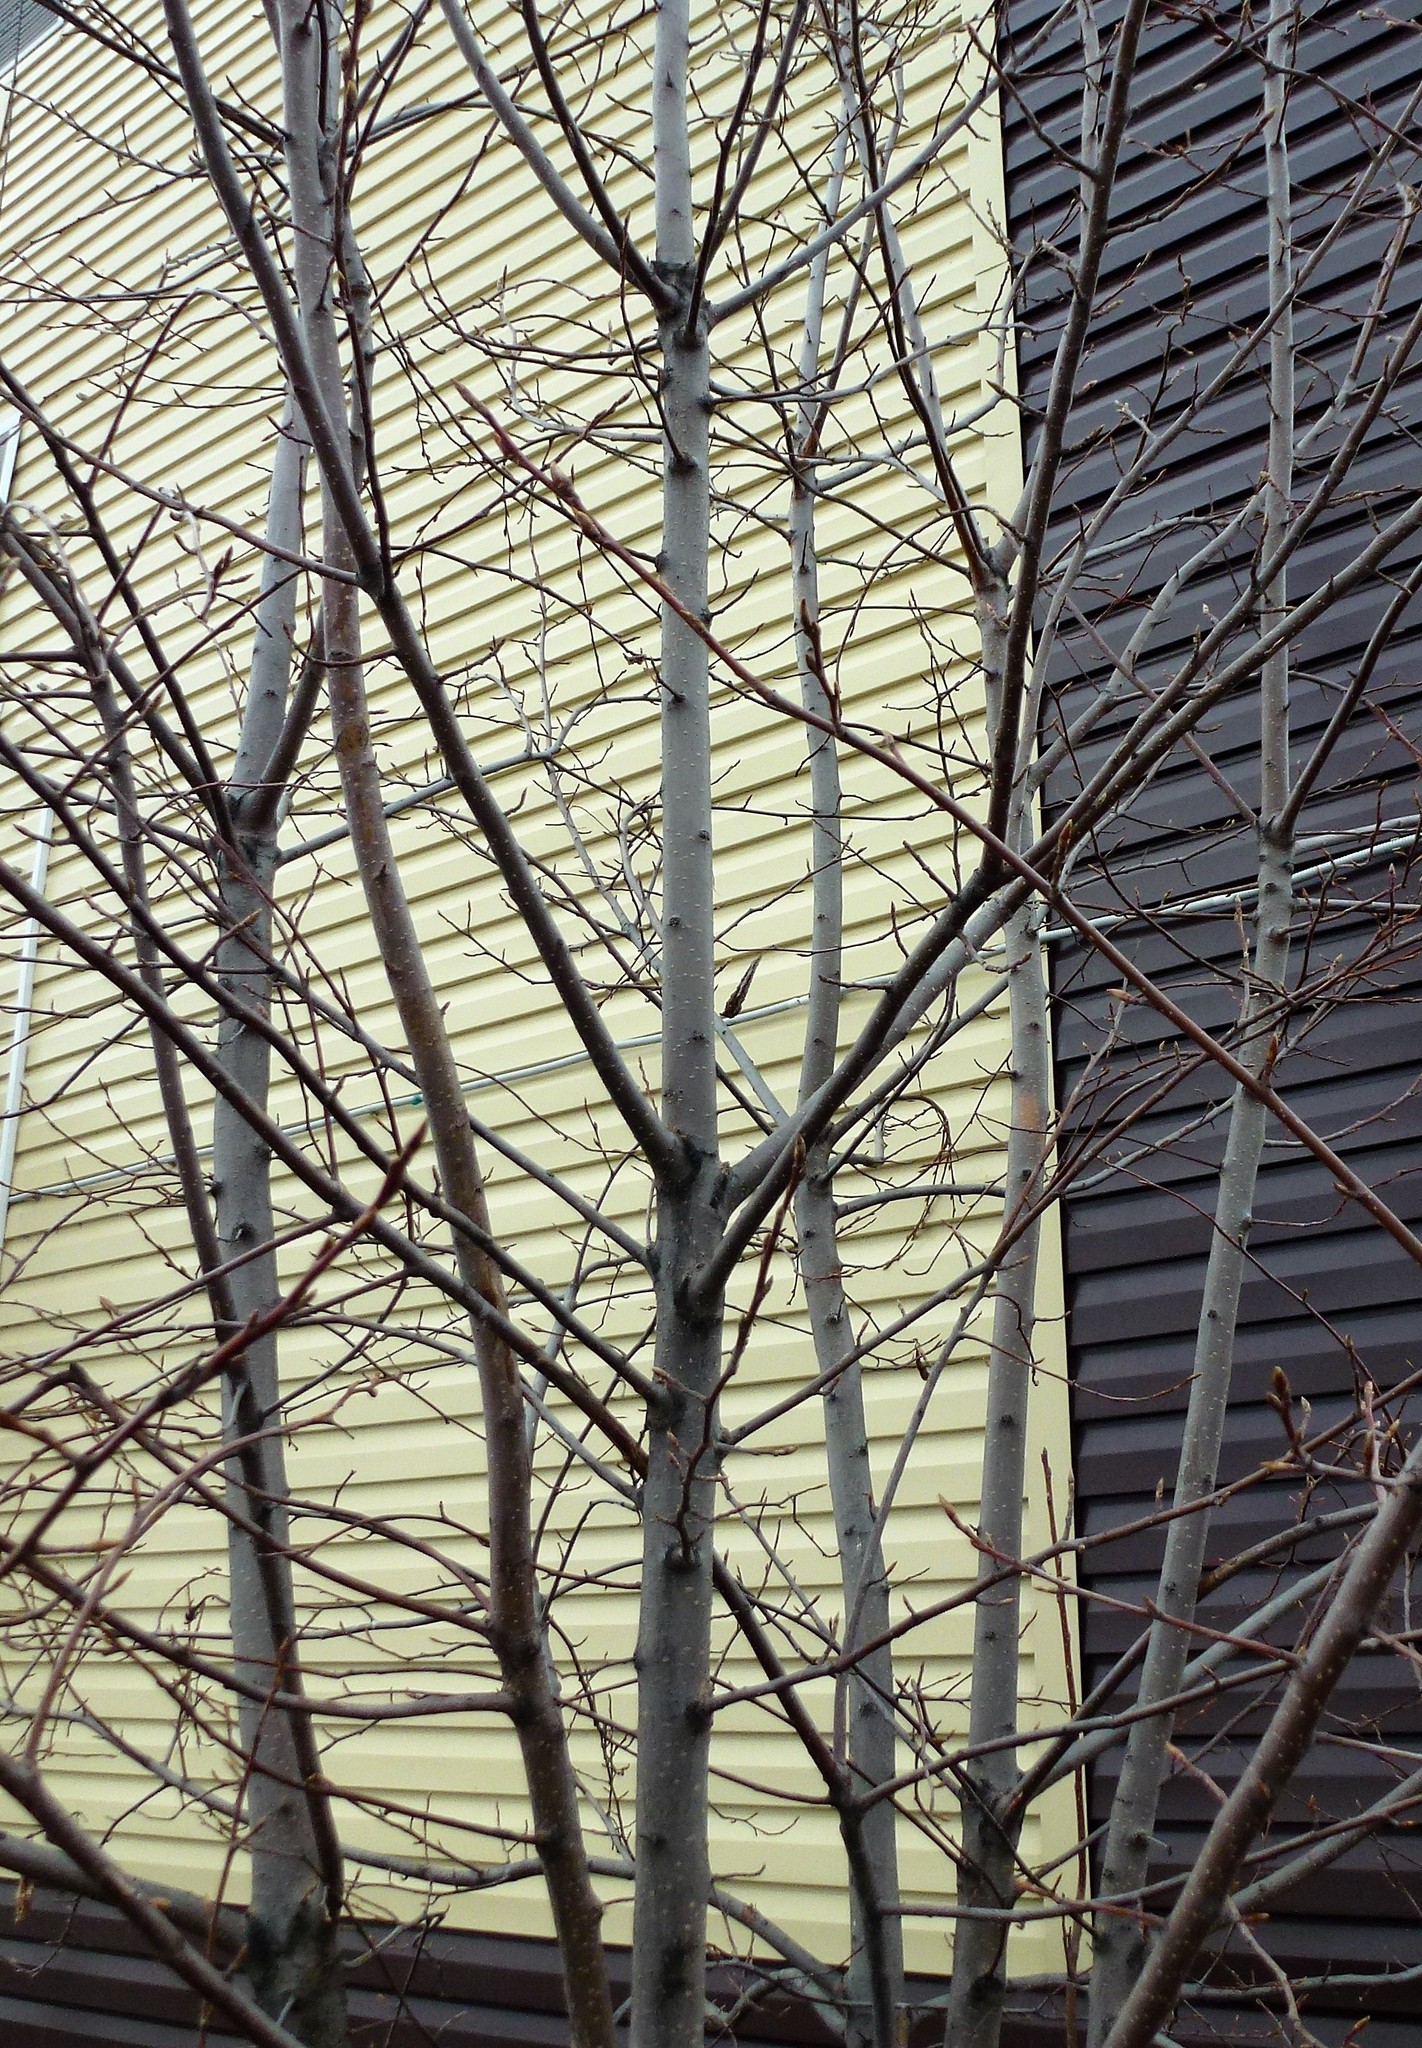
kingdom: Plantae
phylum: Tracheophyta
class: Magnoliopsida
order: Rosales
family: Rosaceae
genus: Prunus
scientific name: Prunus padus
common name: Bird cherry
